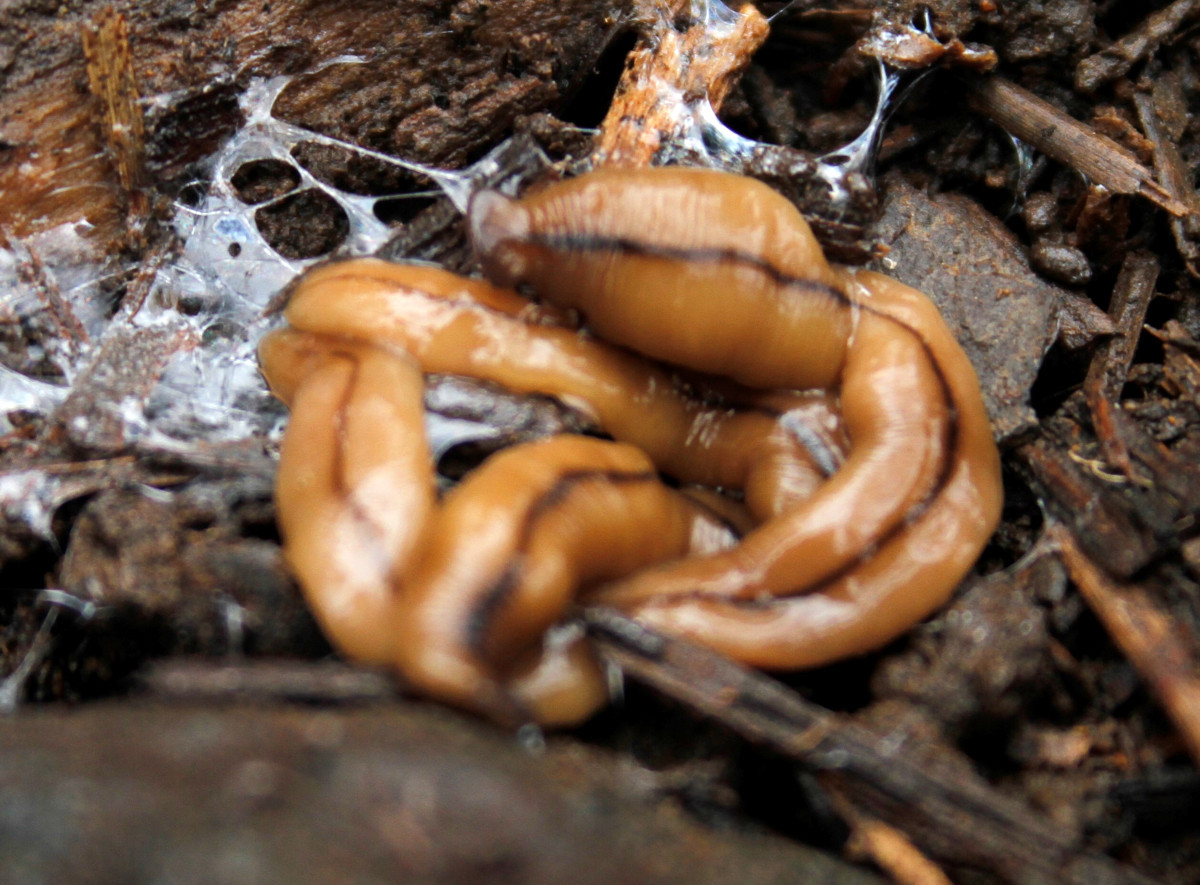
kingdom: Animalia
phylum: Platyhelminthes
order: Tricladida
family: Geoplanidae
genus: Bipalium
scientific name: Bipalium adventitium
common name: Land planarian
